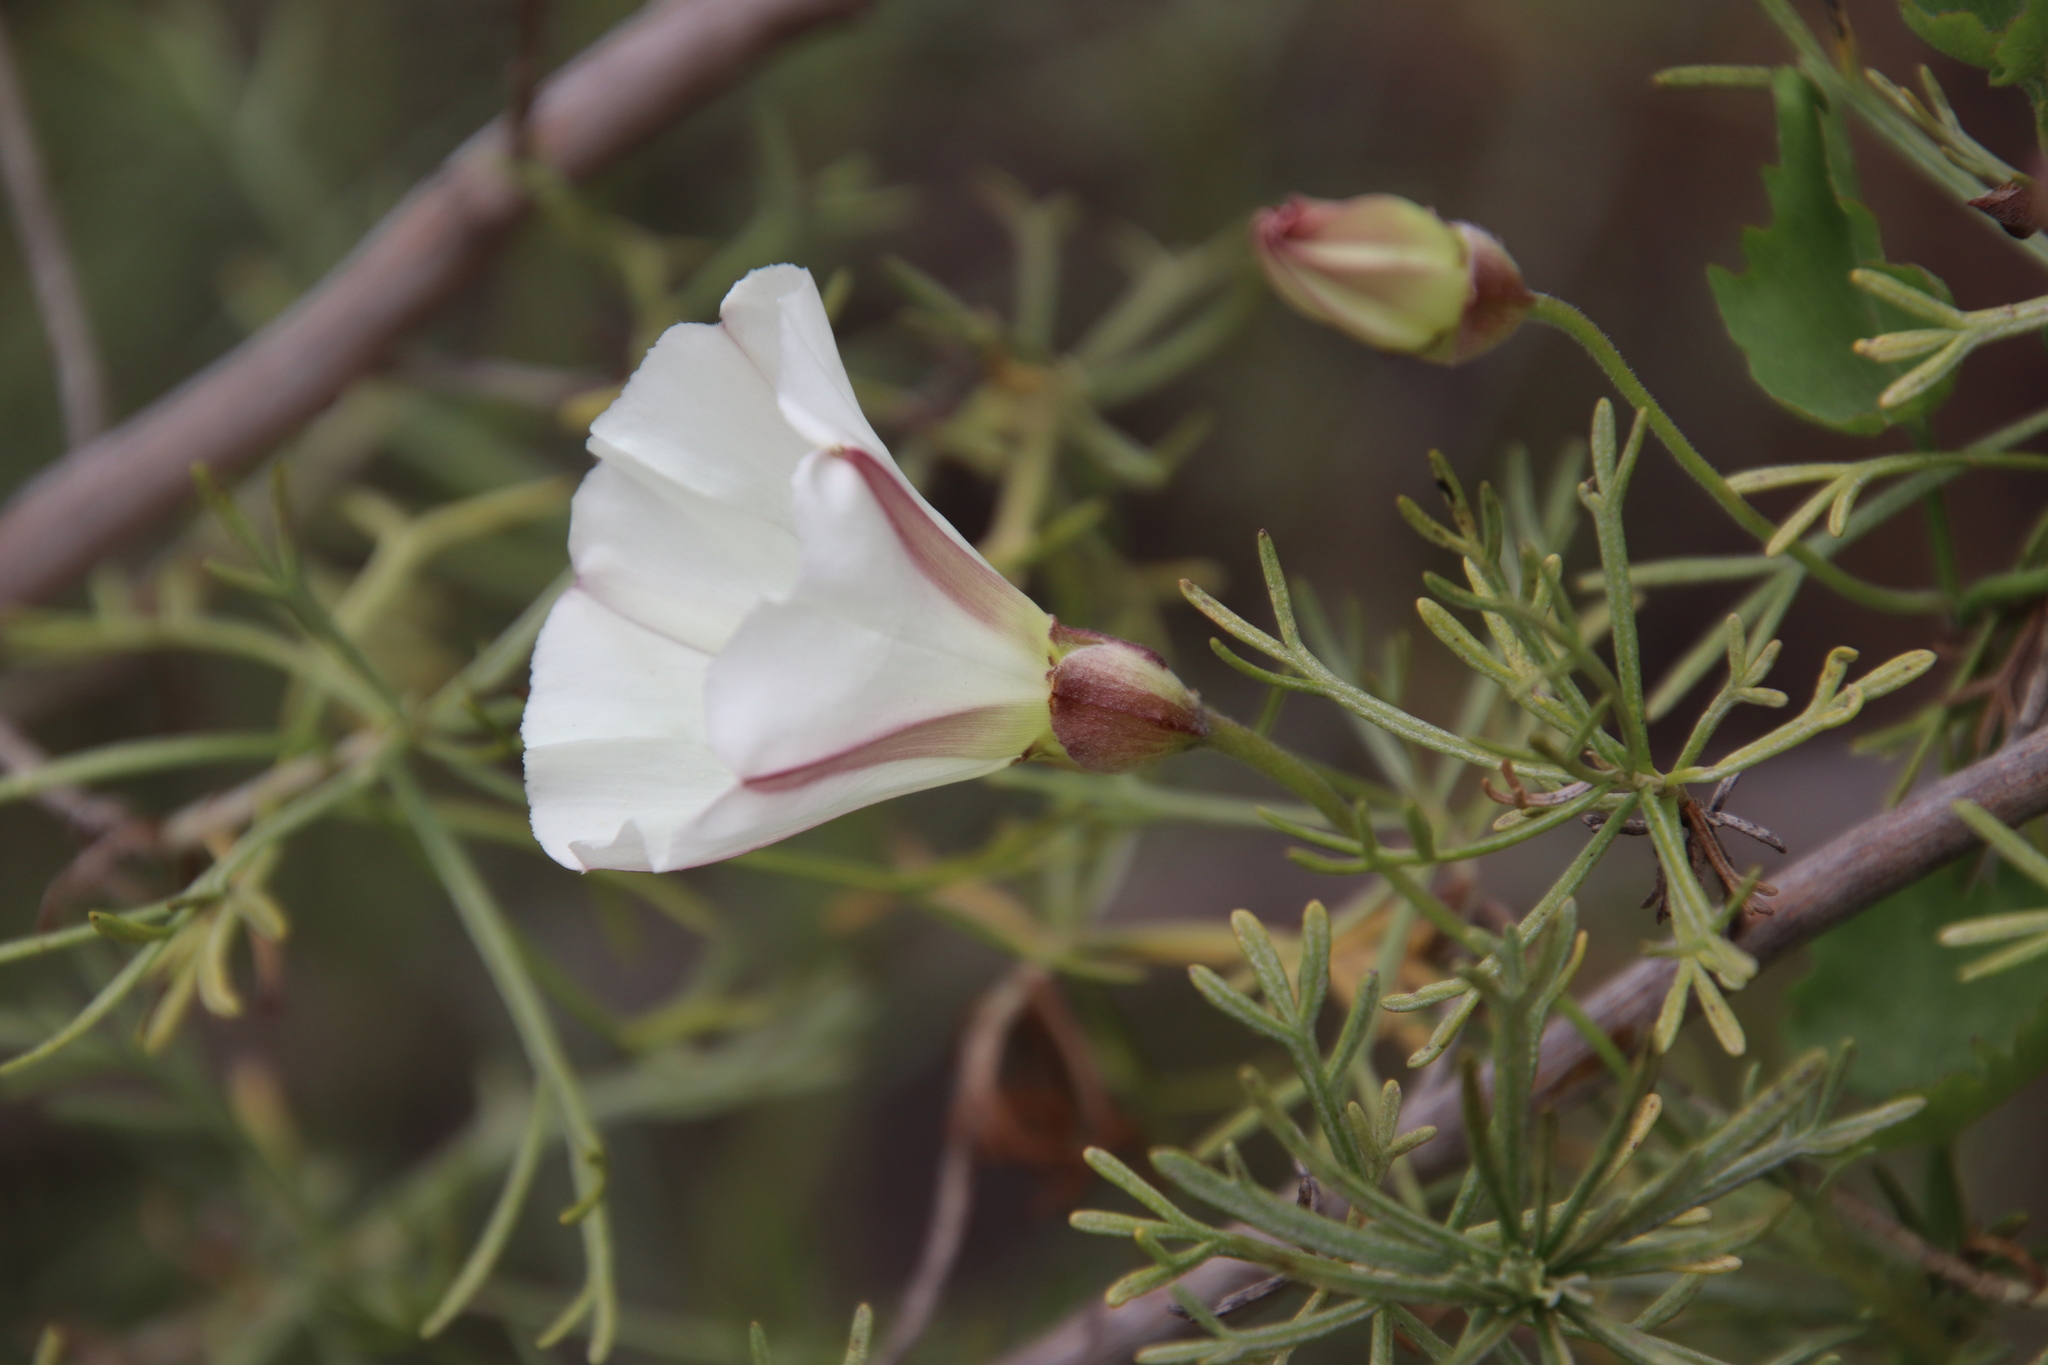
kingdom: Plantae
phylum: Tracheophyta
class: Magnoliopsida
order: Solanales
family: Convolvulaceae
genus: Calystegia
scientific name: Calystegia macrostegia
